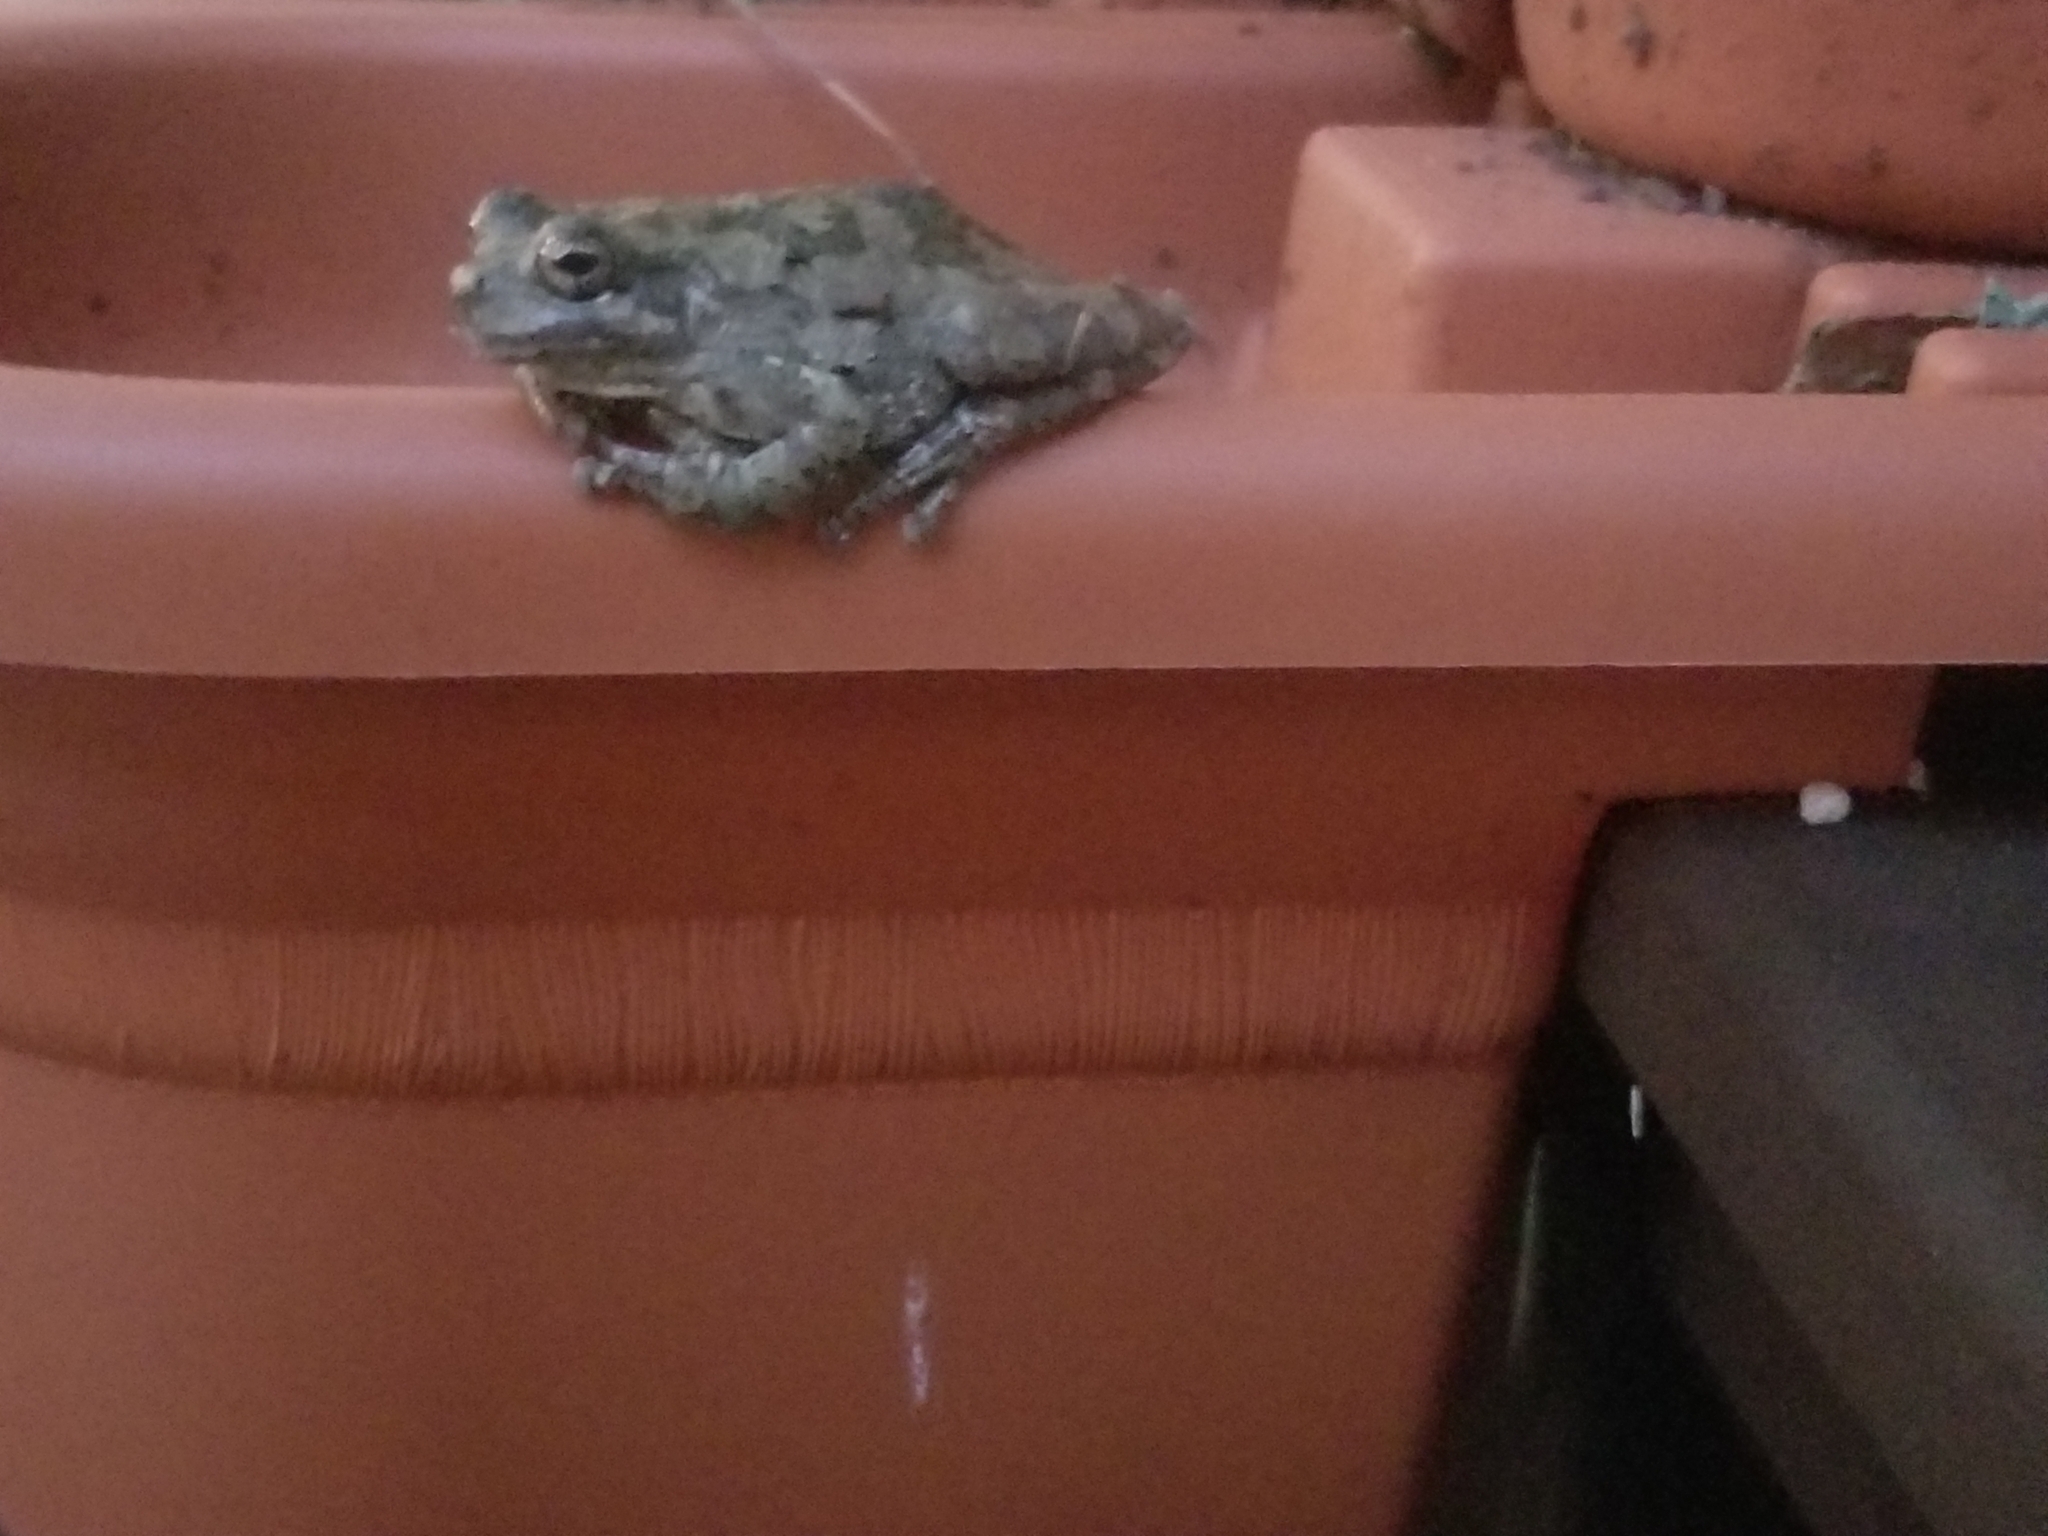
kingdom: Animalia
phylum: Chordata
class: Amphibia
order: Anura
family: Hylidae
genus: Dryophytes
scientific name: Dryophytes chrysoscelis
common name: Cope's gray treefrog
